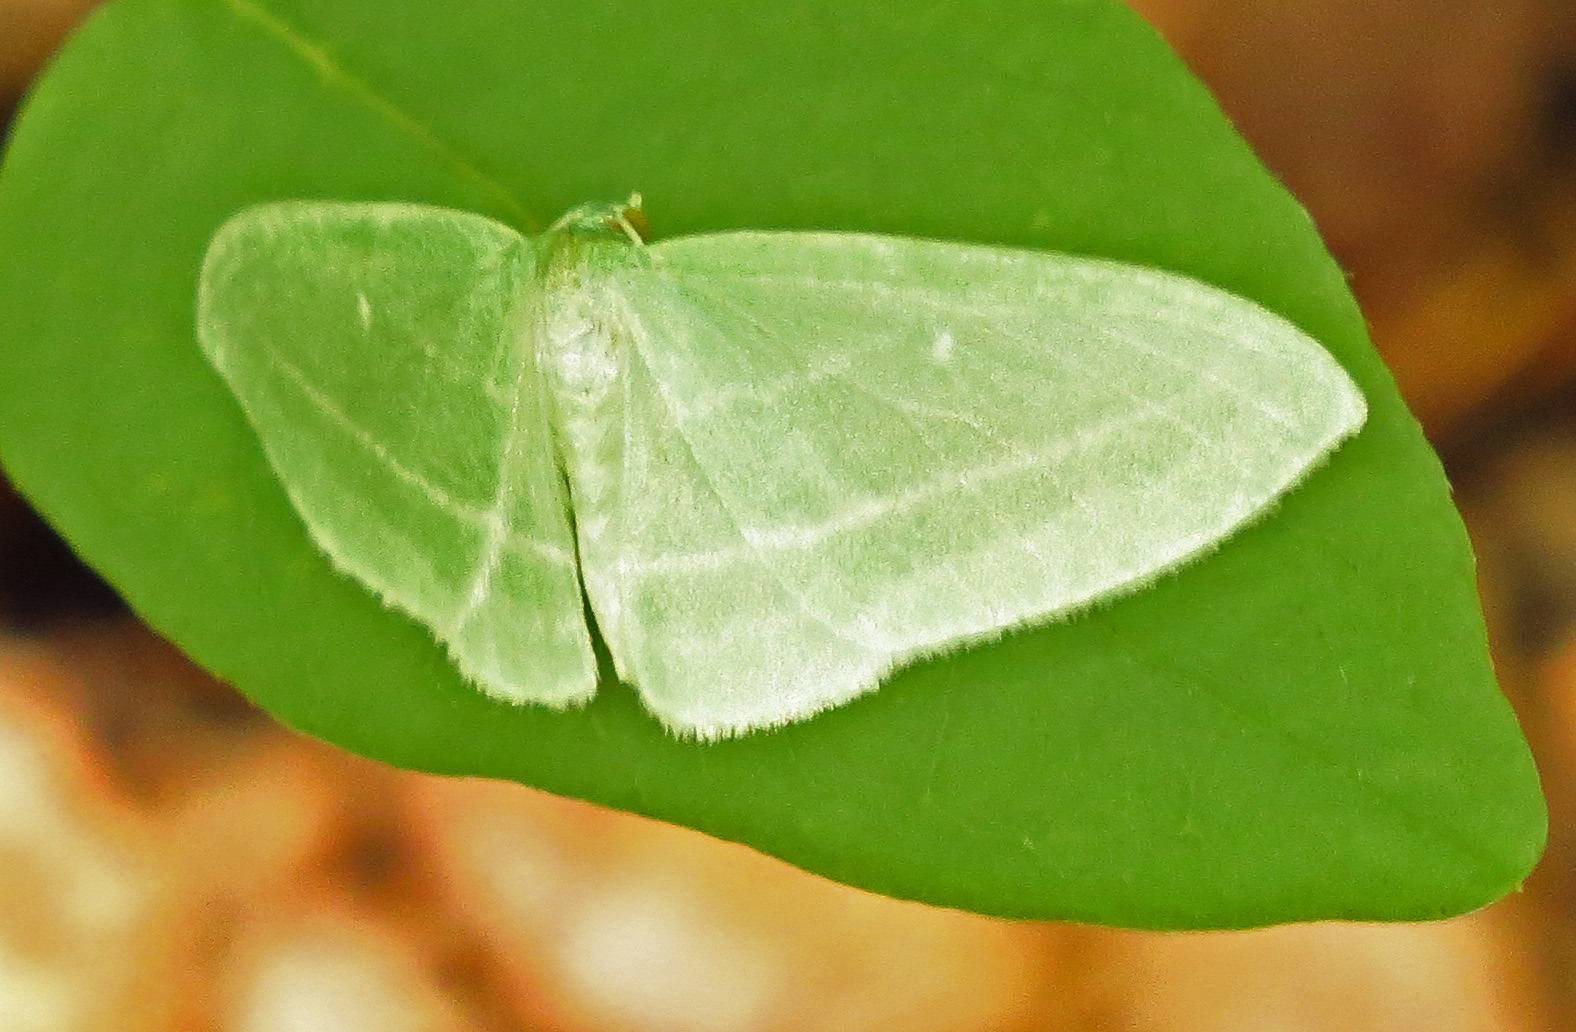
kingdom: Animalia
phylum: Arthropoda
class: Insecta
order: Lepidoptera
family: Geometridae
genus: Dyspteris
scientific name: Dyspteris abortivaria
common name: Bad-wing
